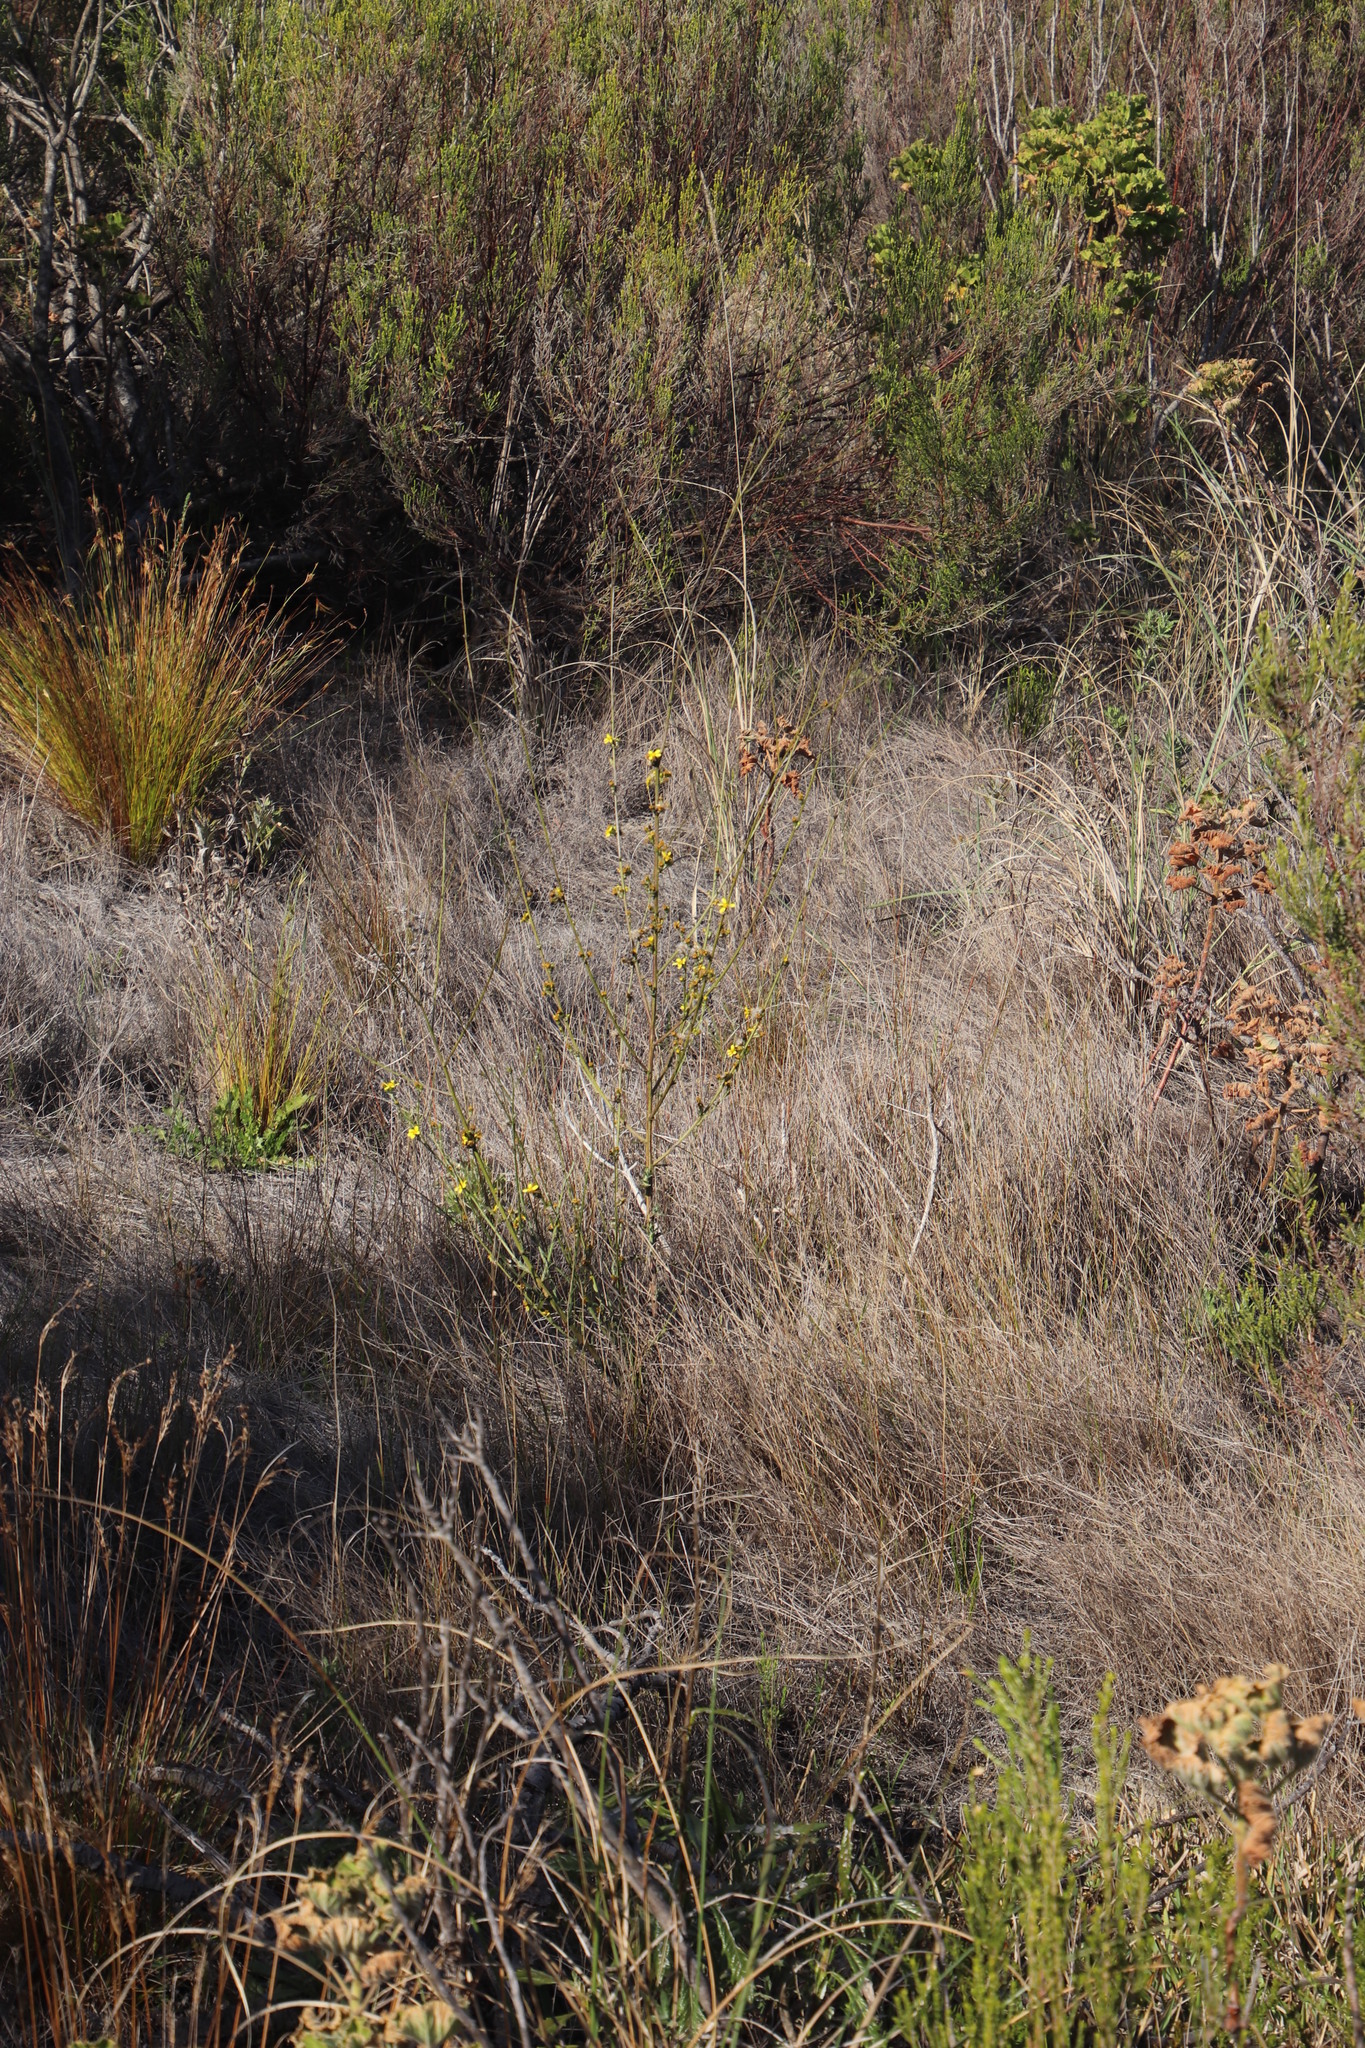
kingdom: Plantae
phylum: Tracheophyta
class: Magnoliopsida
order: Asterales
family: Asteraceae
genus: Senecio
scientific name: Senecio pubigerus
